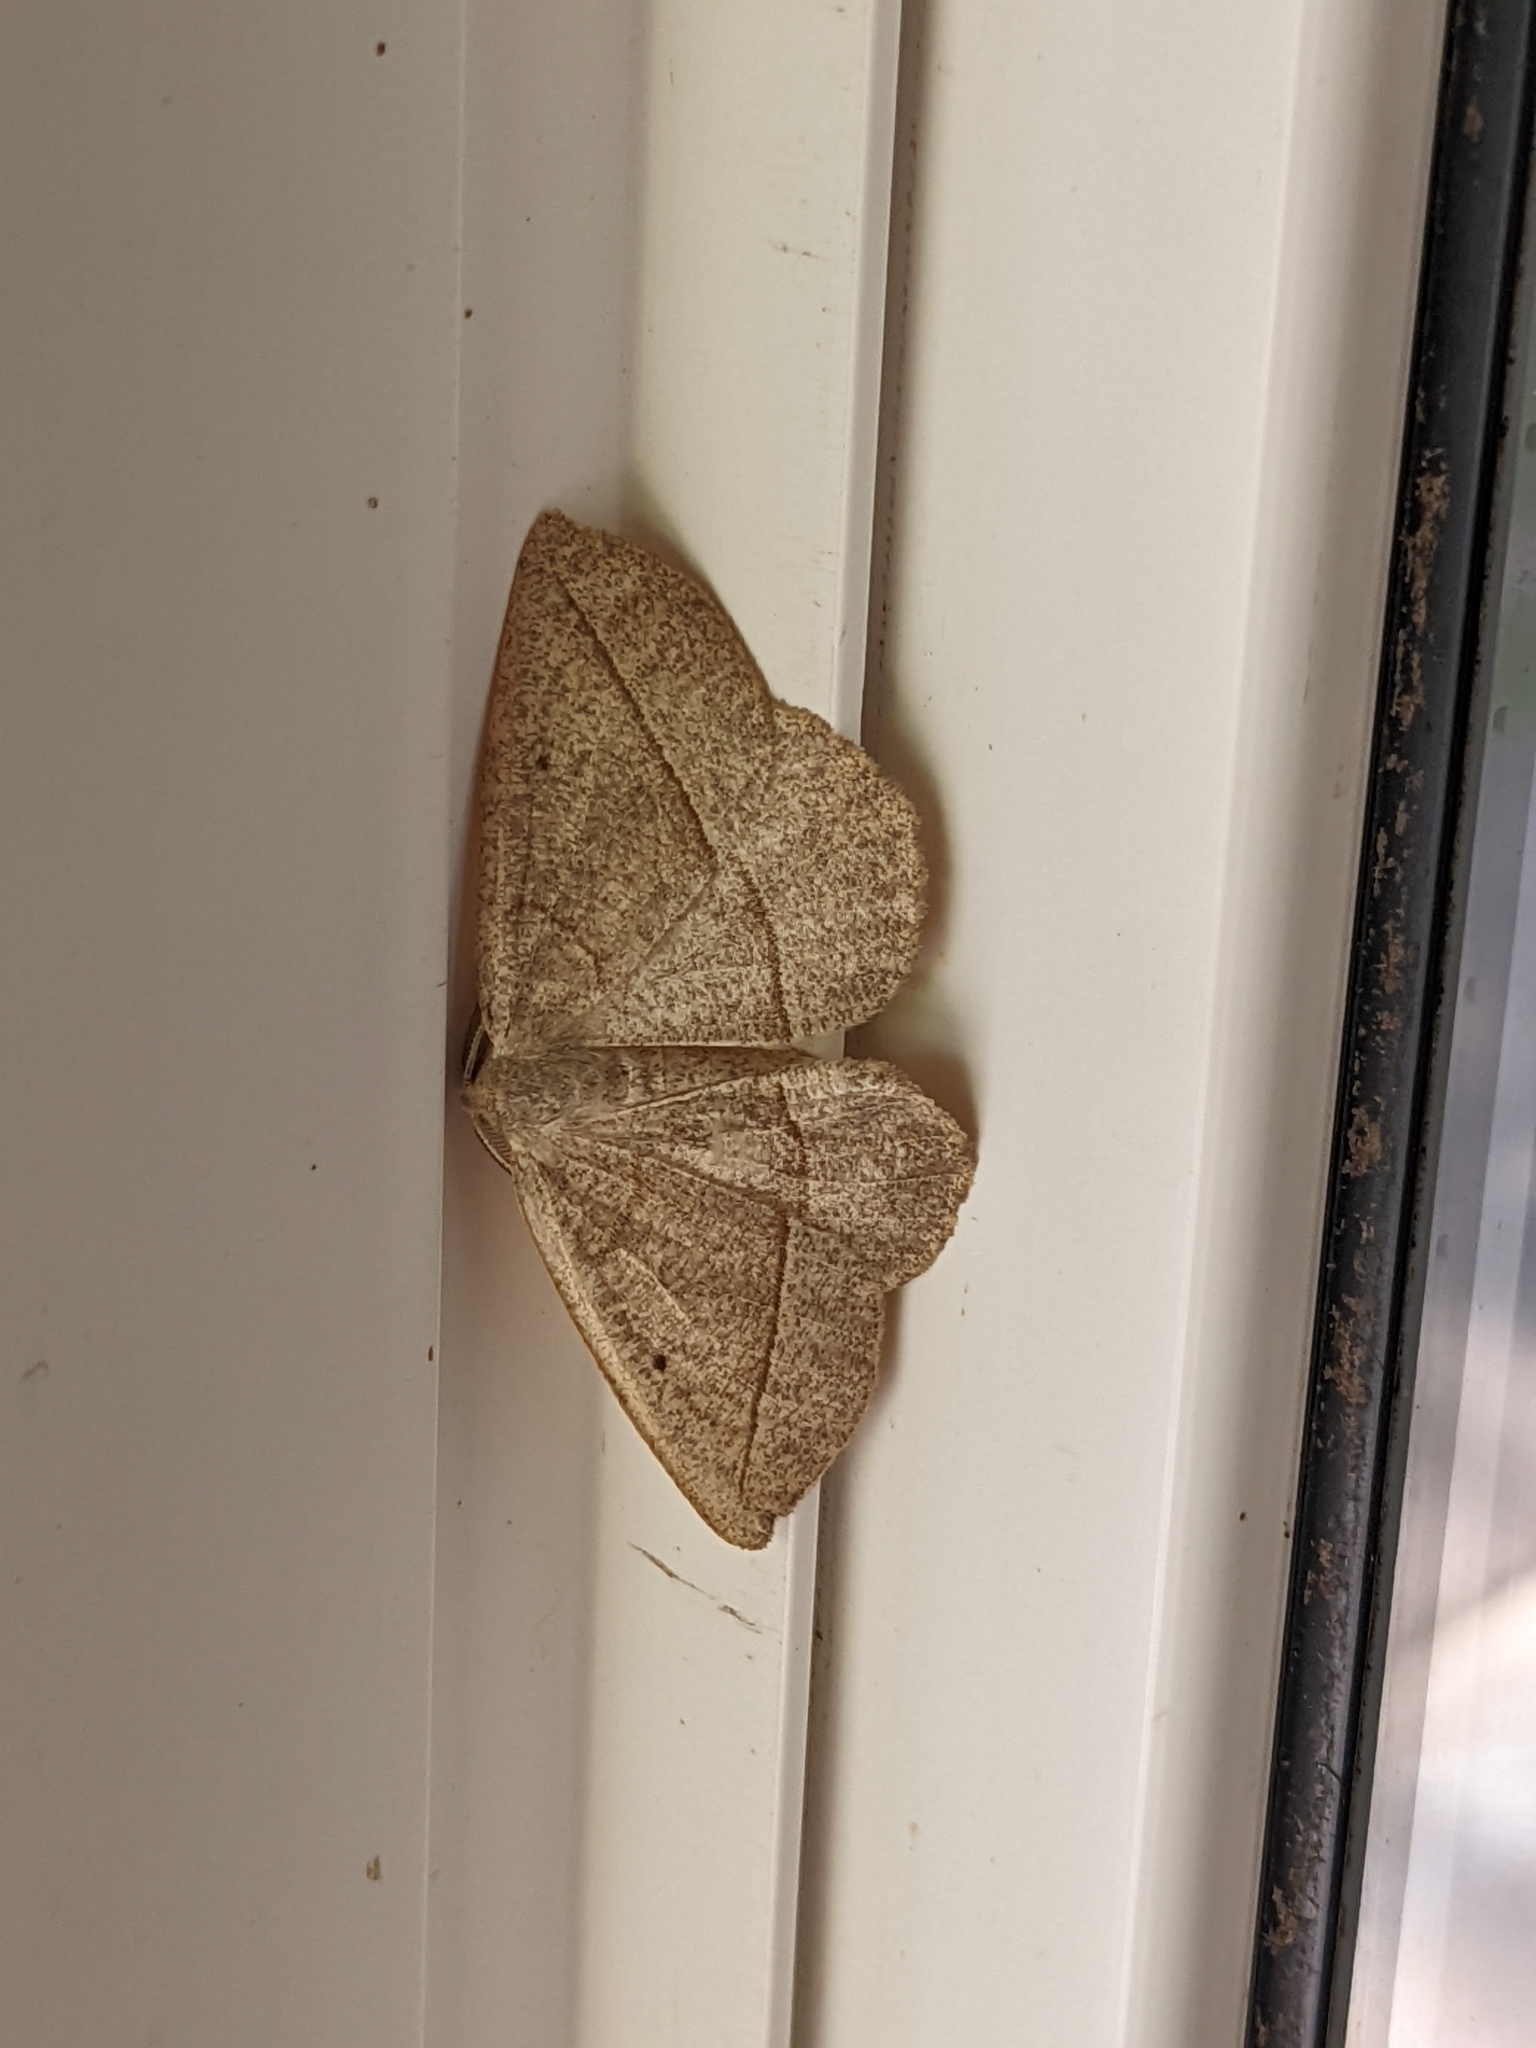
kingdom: Animalia
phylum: Arthropoda
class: Insecta
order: Lepidoptera
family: Geometridae
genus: Eusarca
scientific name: Eusarca confusaria
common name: Confused eusarca
